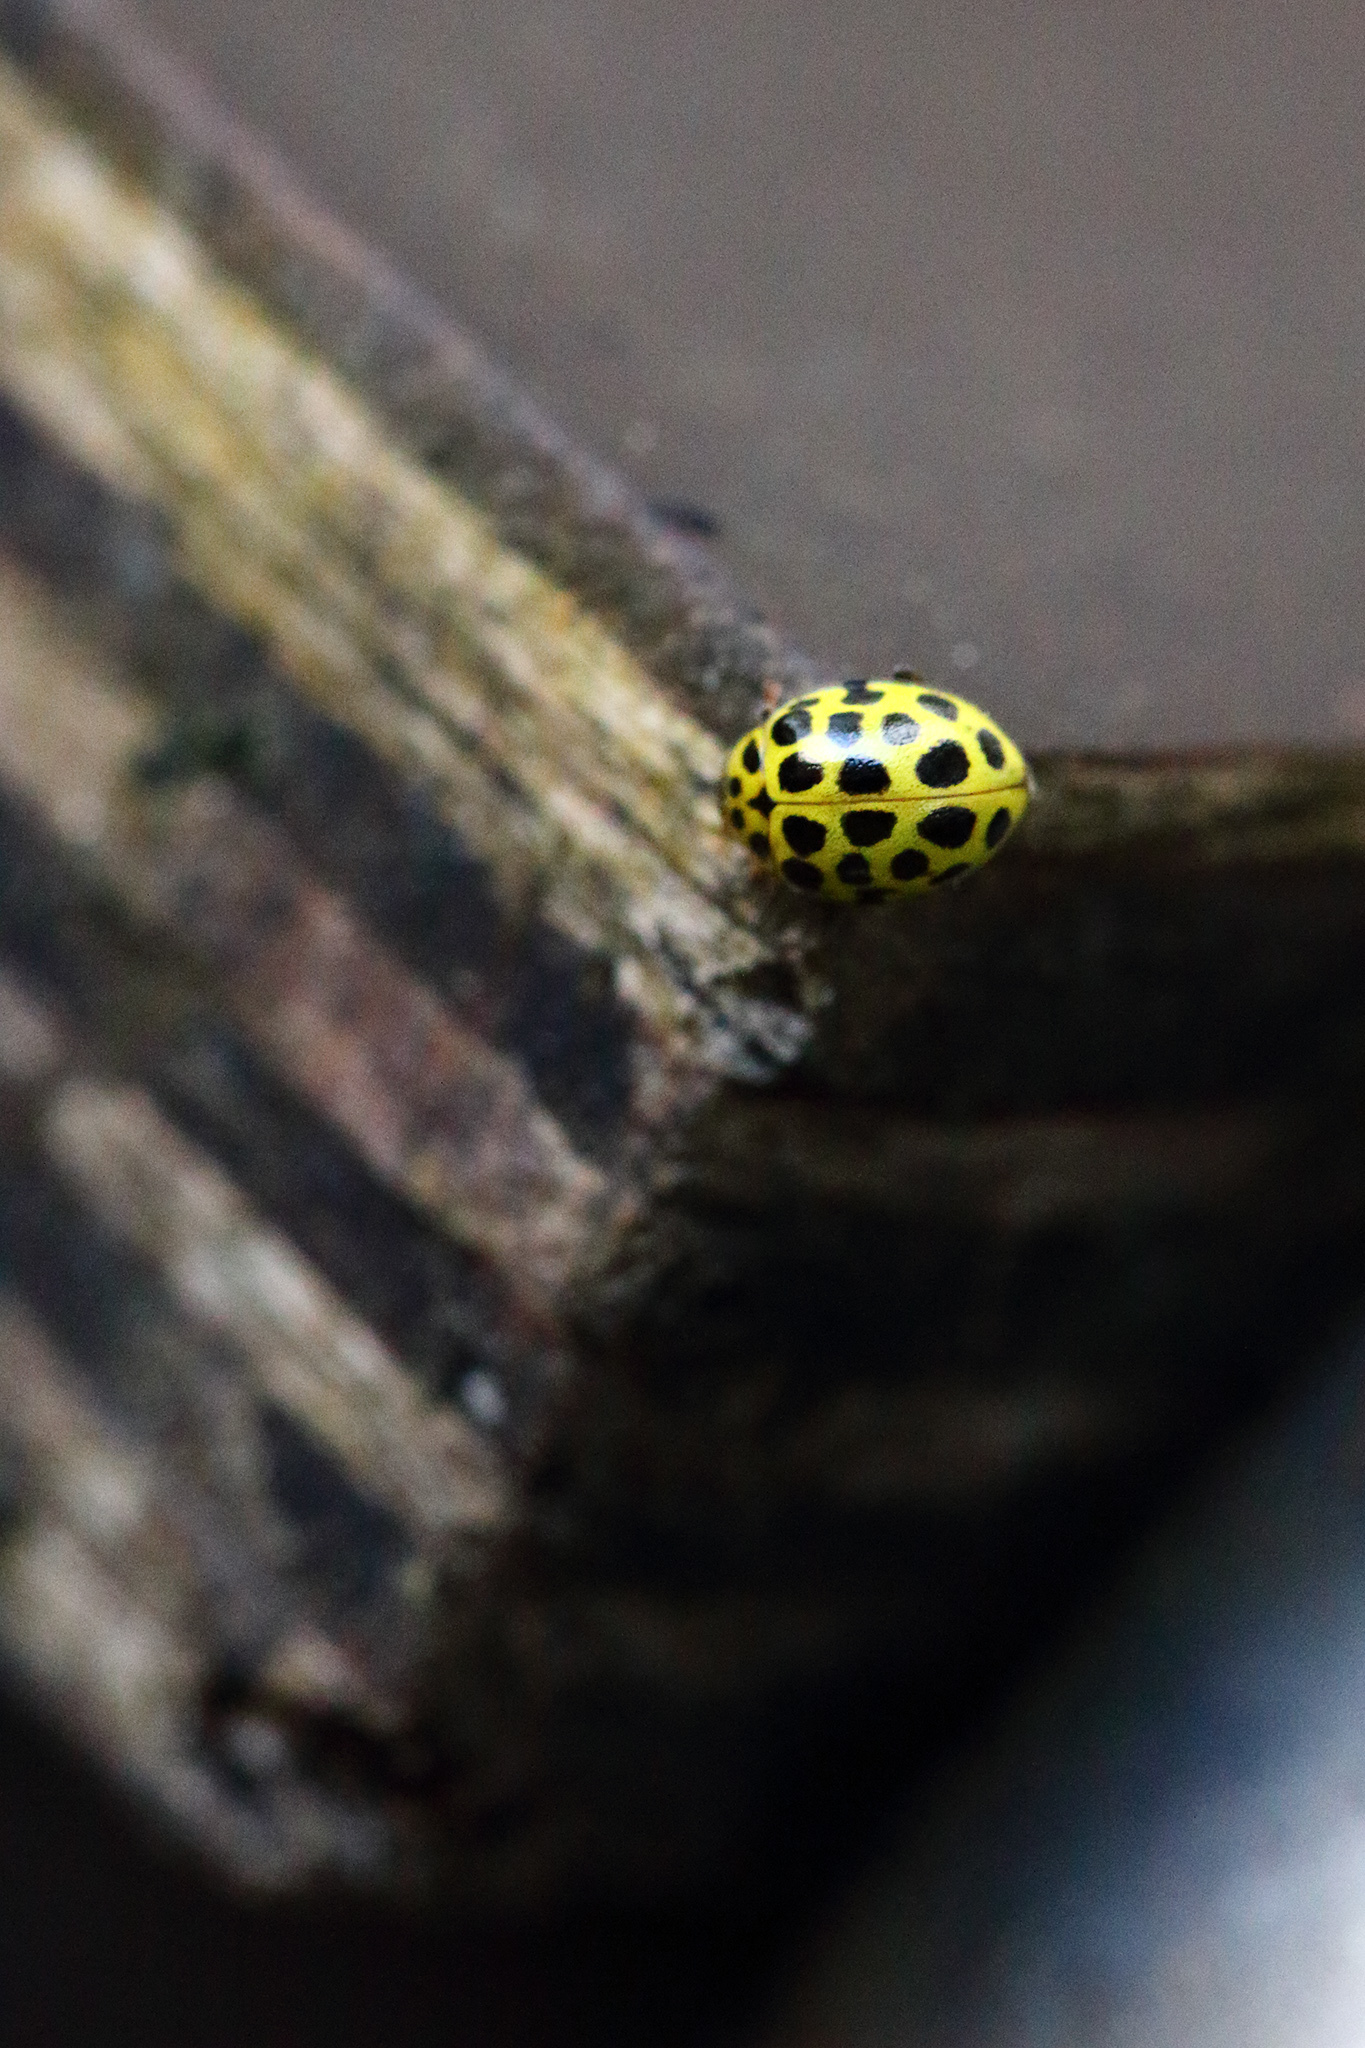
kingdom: Animalia
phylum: Arthropoda
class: Insecta
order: Coleoptera
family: Coccinellidae
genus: Psyllobora
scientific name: Psyllobora vigintiduopunctata
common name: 22-spot ladybird
